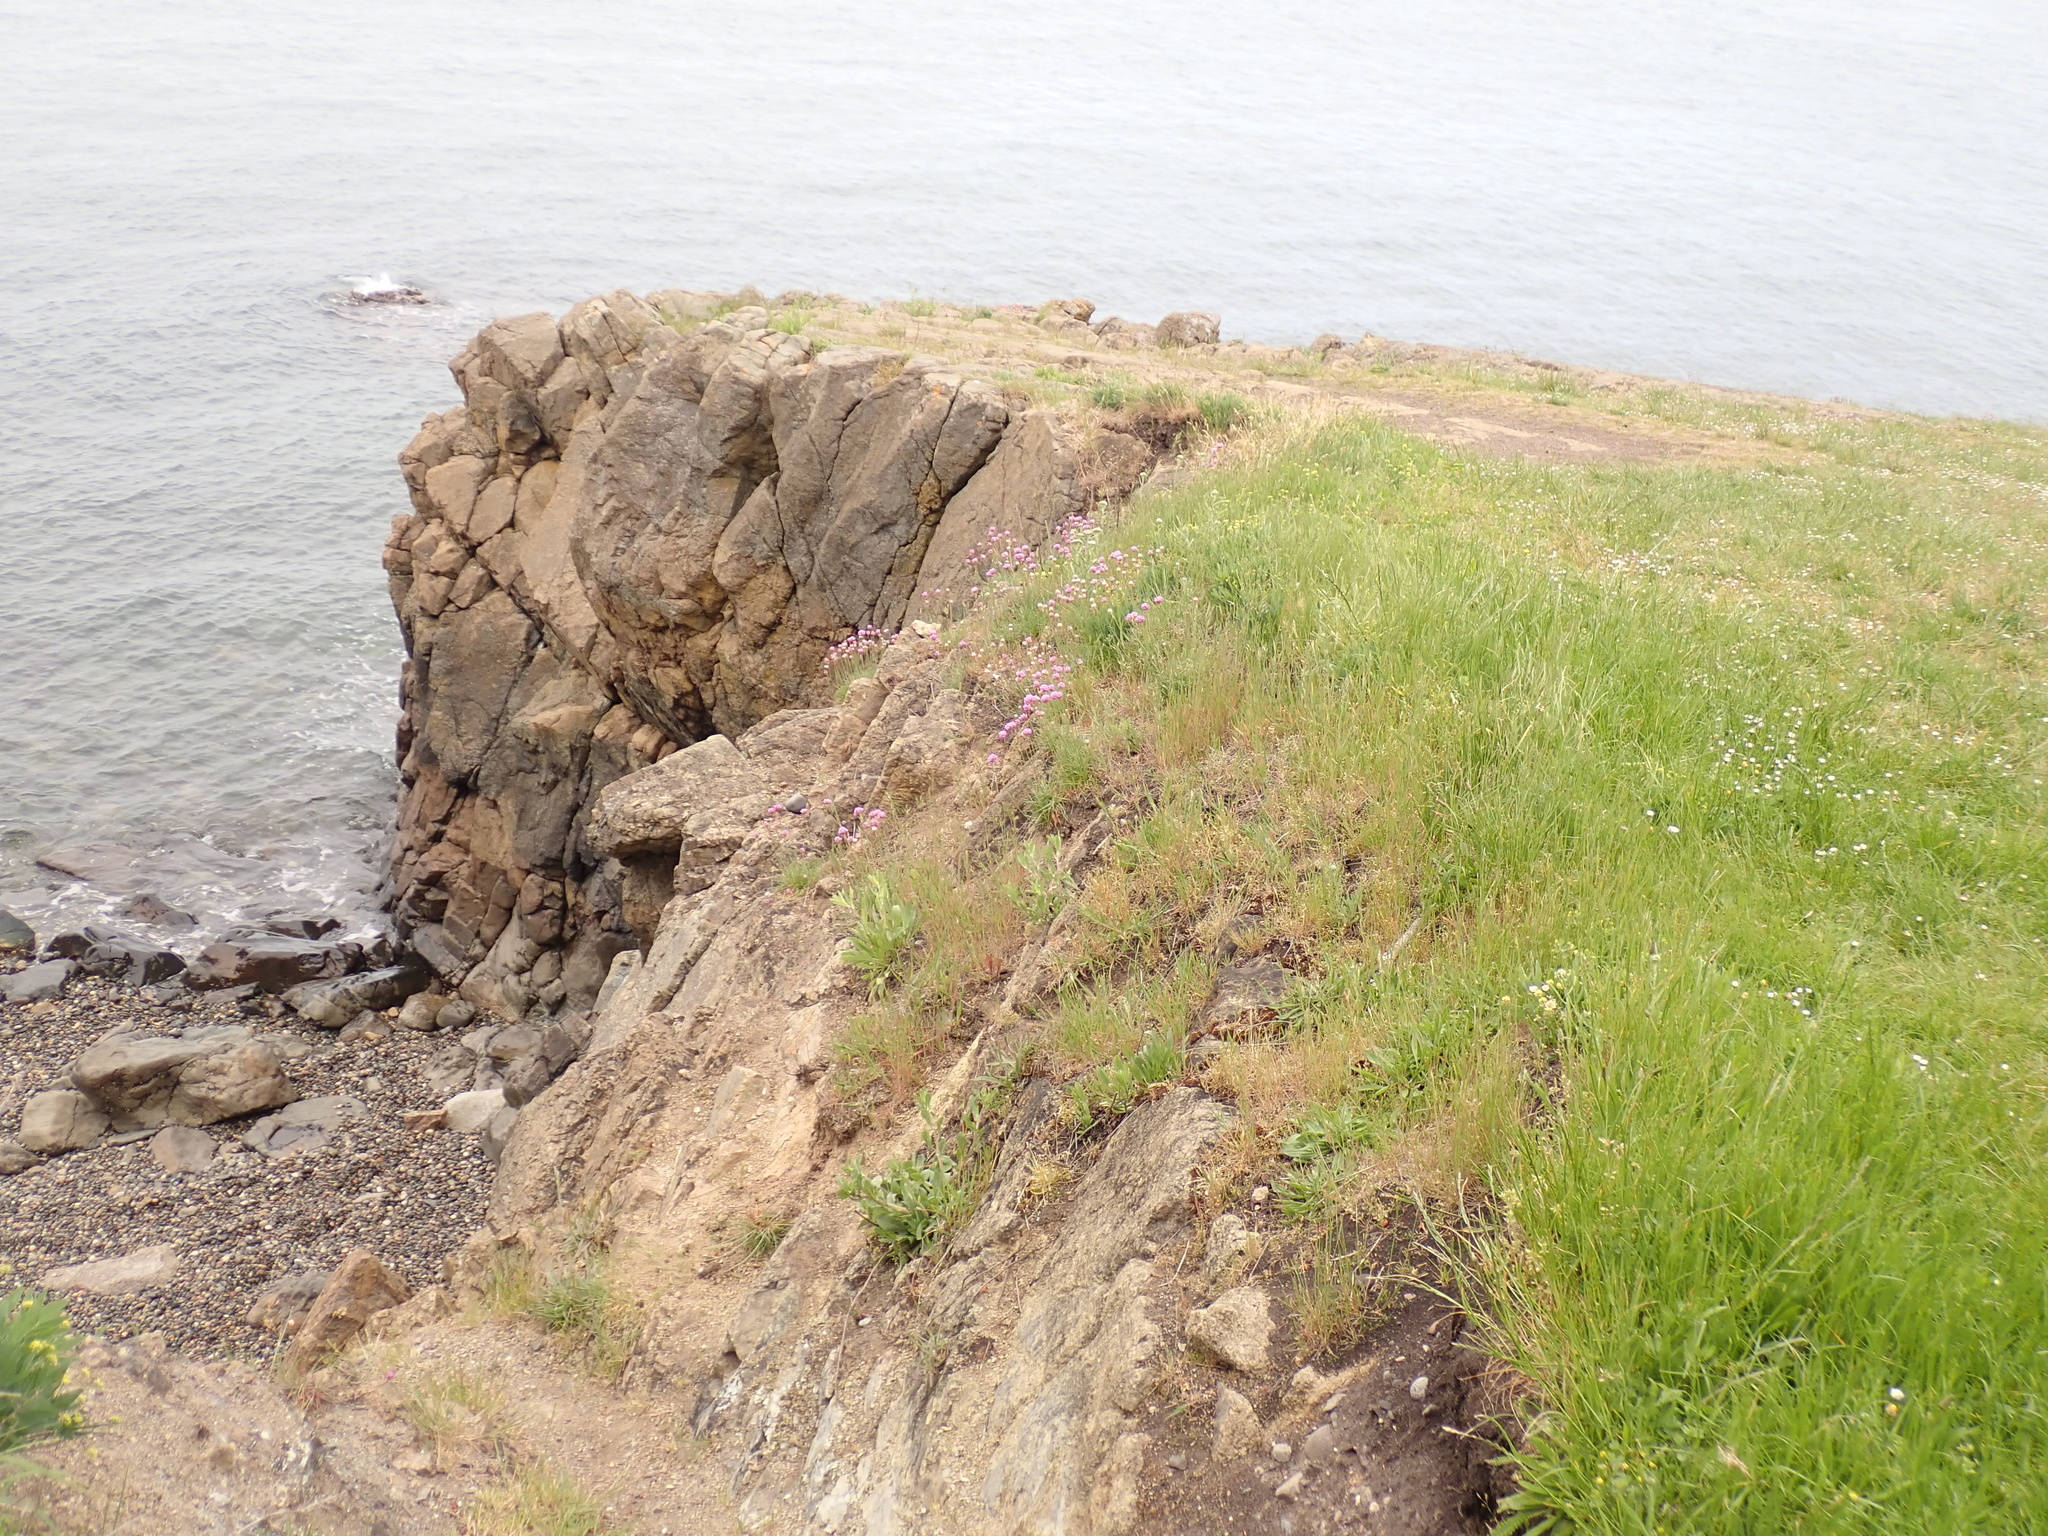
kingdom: Plantae
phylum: Tracheophyta
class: Magnoliopsida
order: Caryophyllales
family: Plumbaginaceae
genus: Armeria
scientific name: Armeria maritima
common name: Thrift
